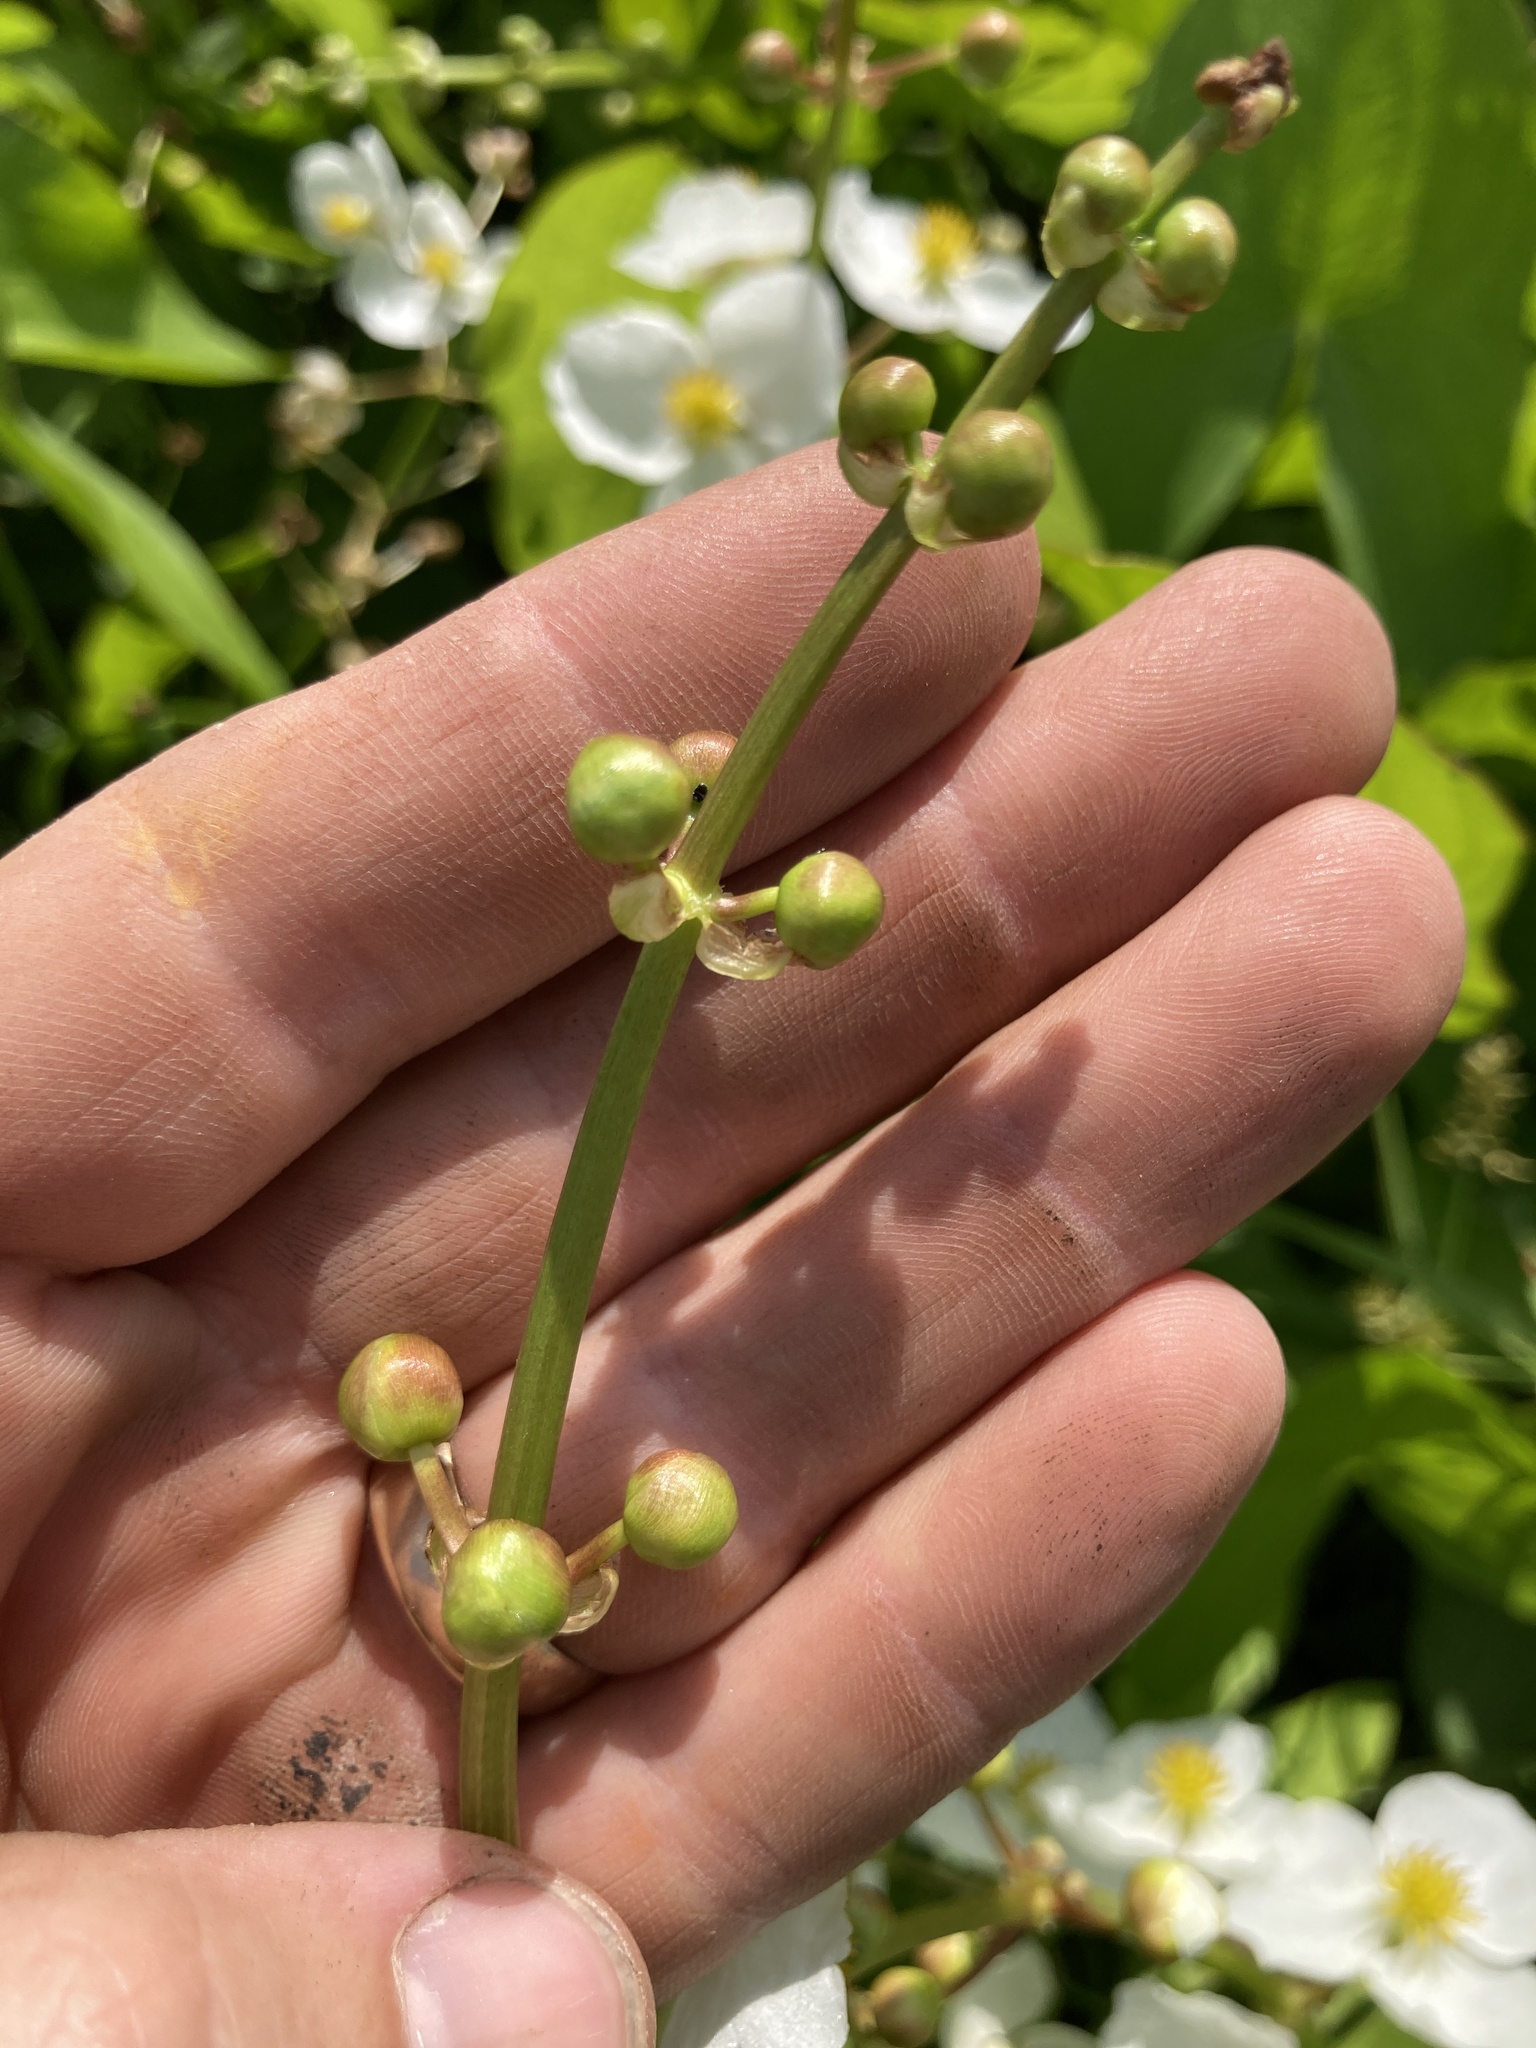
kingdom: Plantae
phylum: Tracheophyta
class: Liliopsida
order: Alismatales
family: Alismataceae
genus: Sagittaria
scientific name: Sagittaria latifolia
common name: Duck-potato
